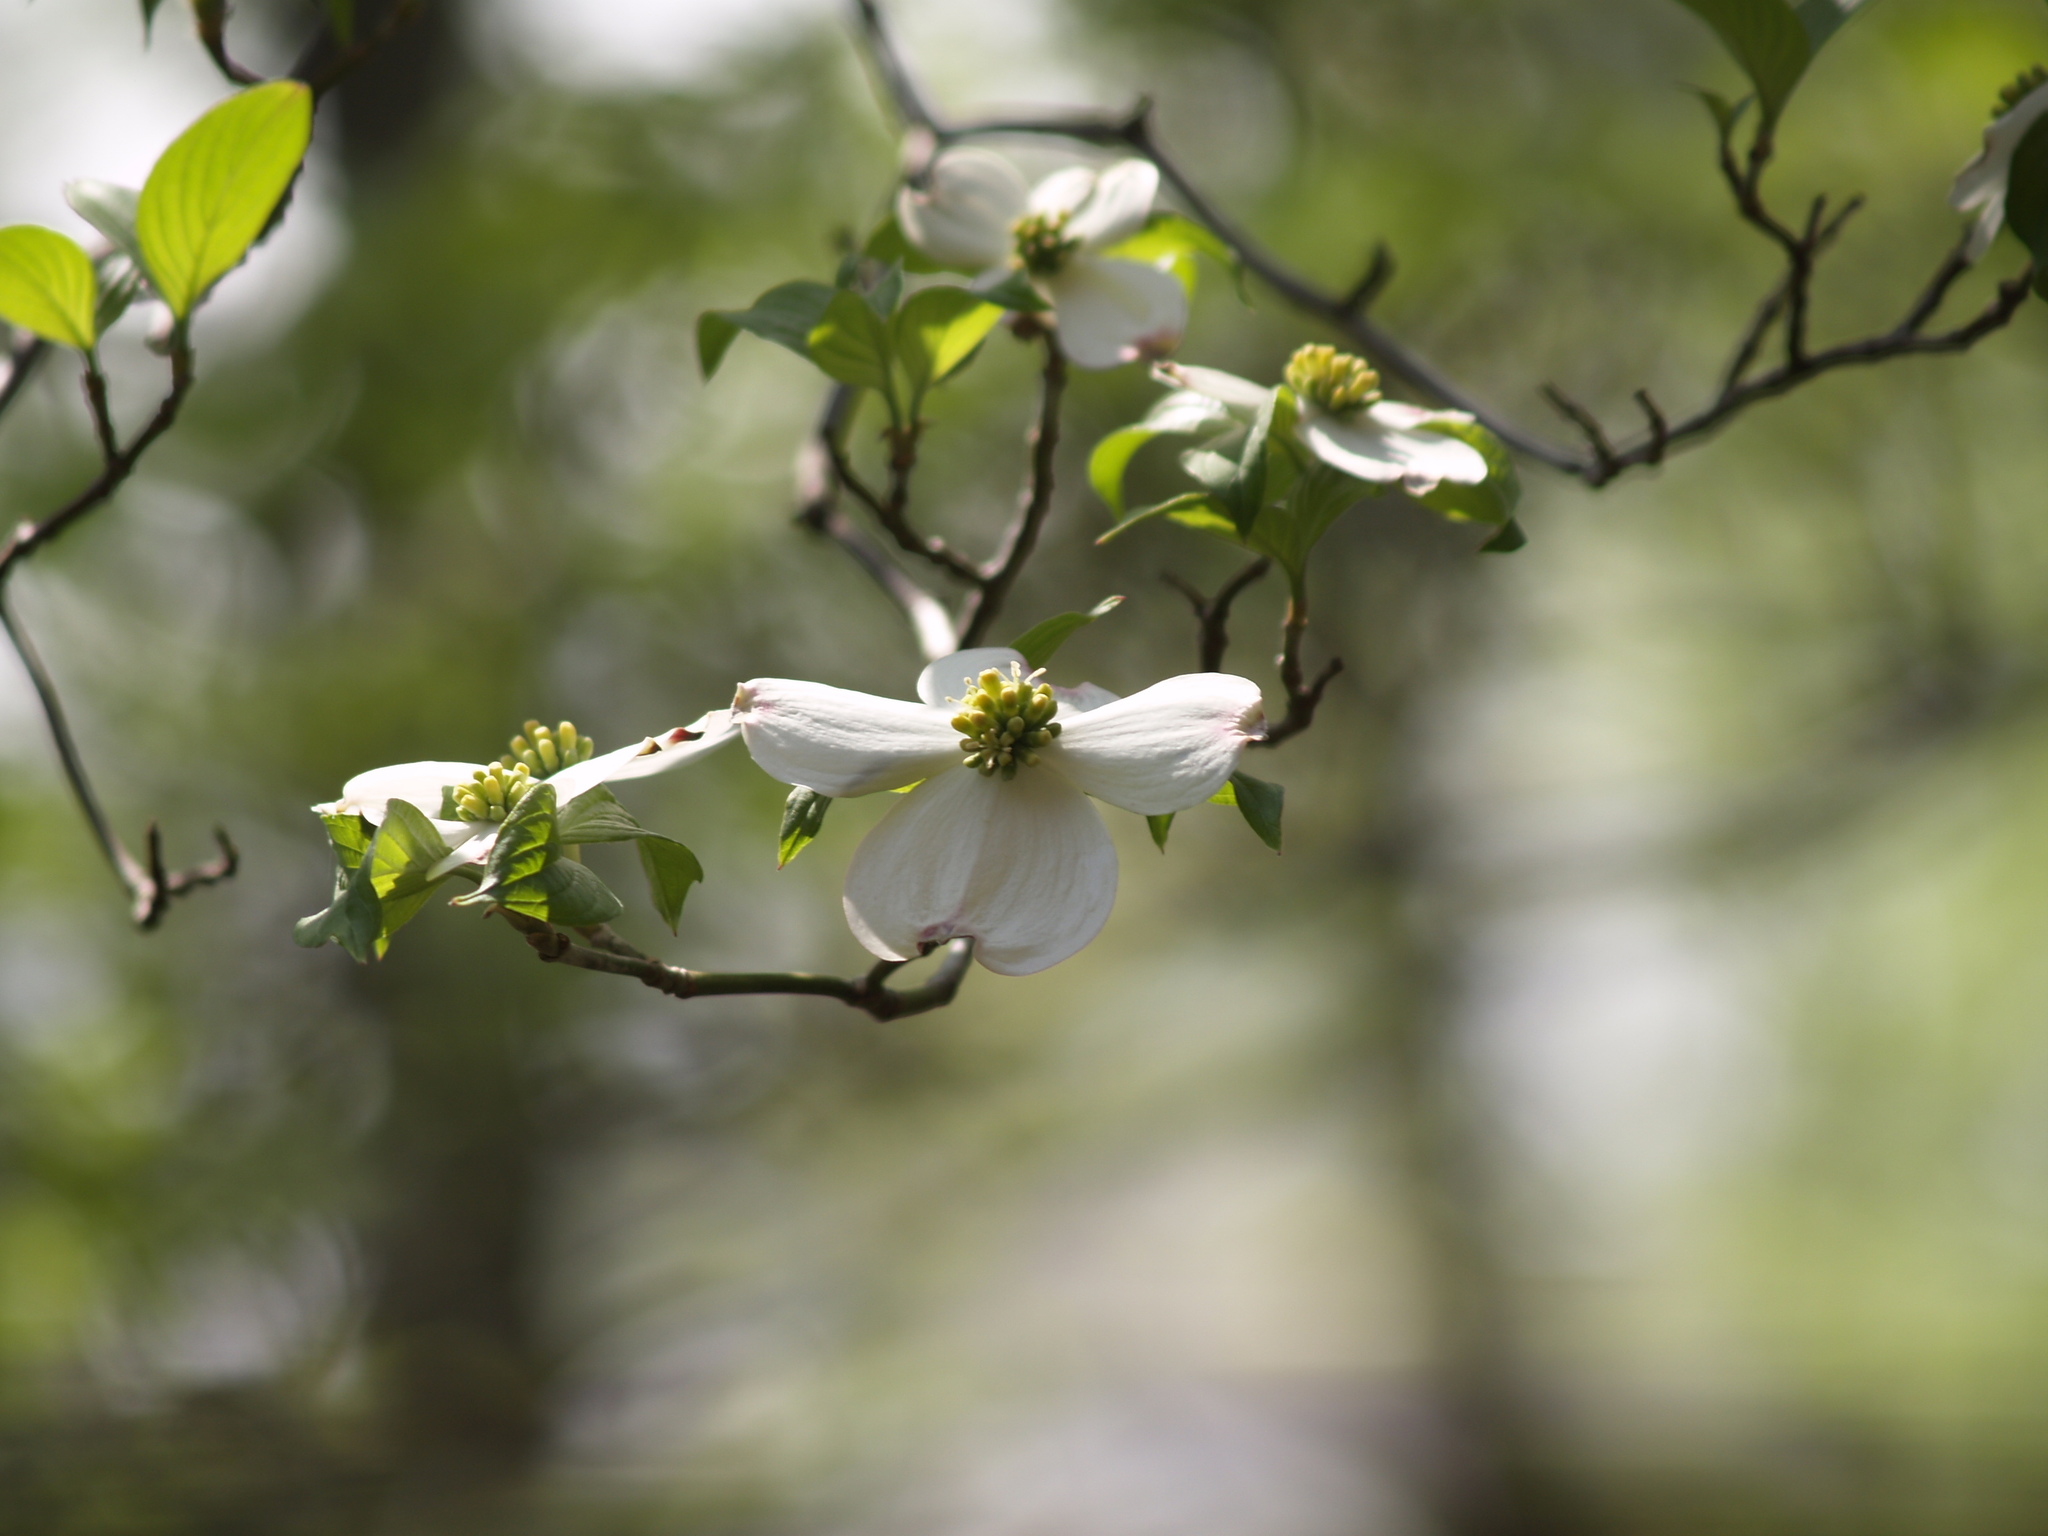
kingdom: Plantae
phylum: Tracheophyta
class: Magnoliopsida
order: Cornales
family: Cornaceae
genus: Cornus
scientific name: Cornus florida
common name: Flowering dogwood
